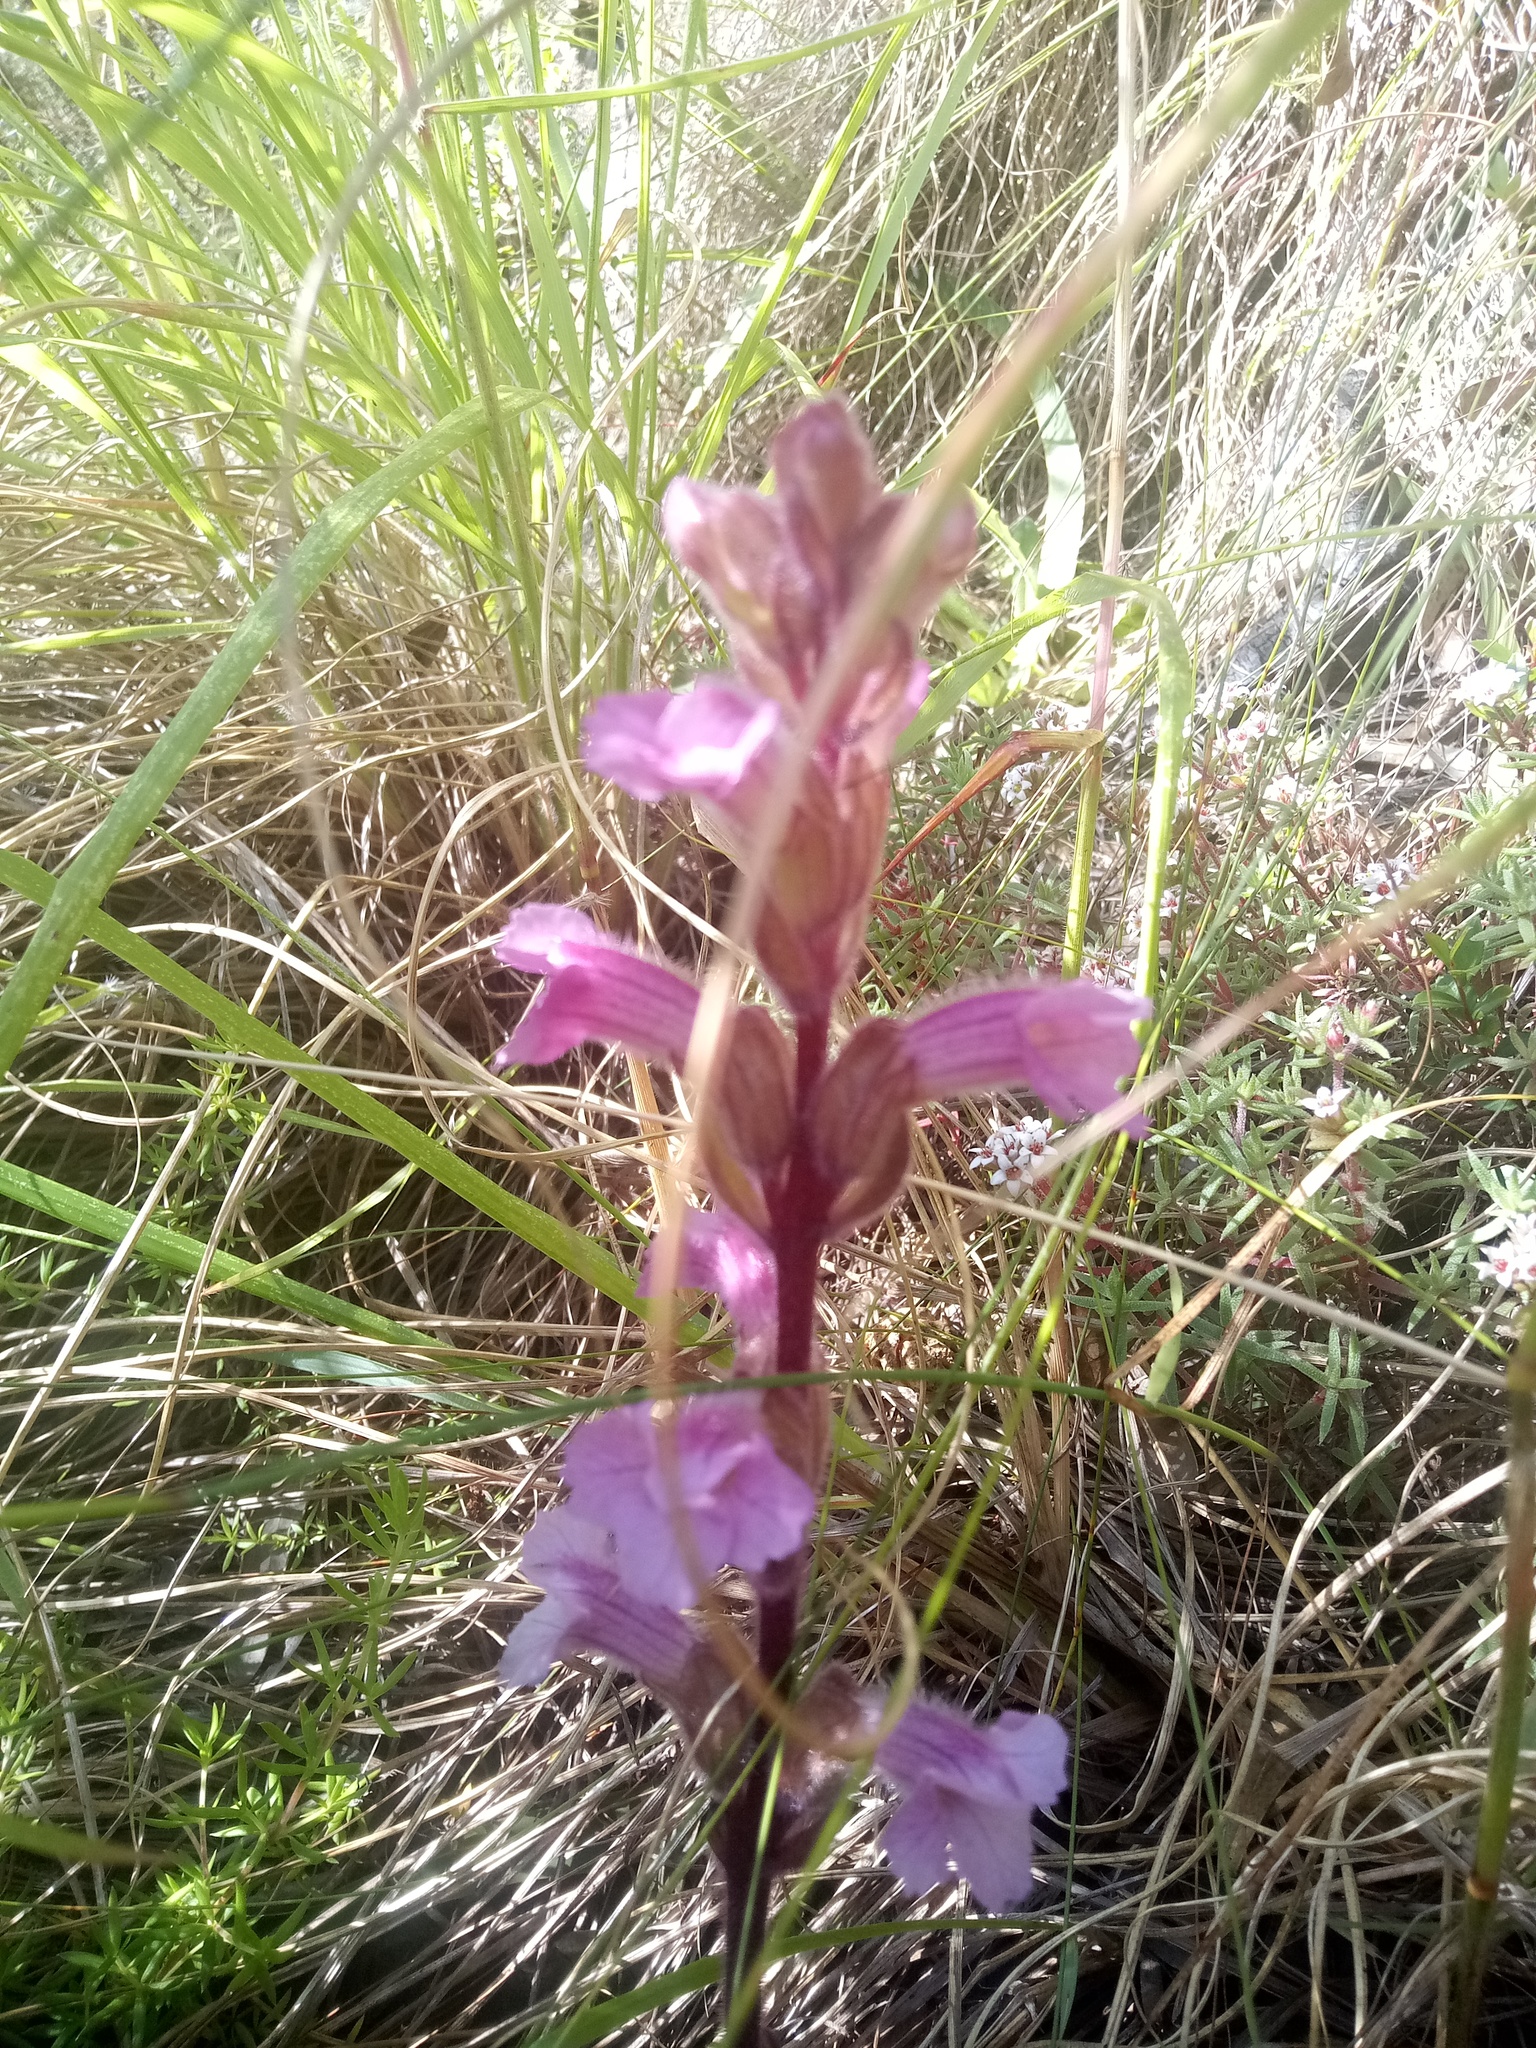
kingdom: Plantae
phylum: Tracheophyta
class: Magnoliopsida
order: Lamiales
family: Orobanchaceae
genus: Harveya
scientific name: Harveya pauciflora
